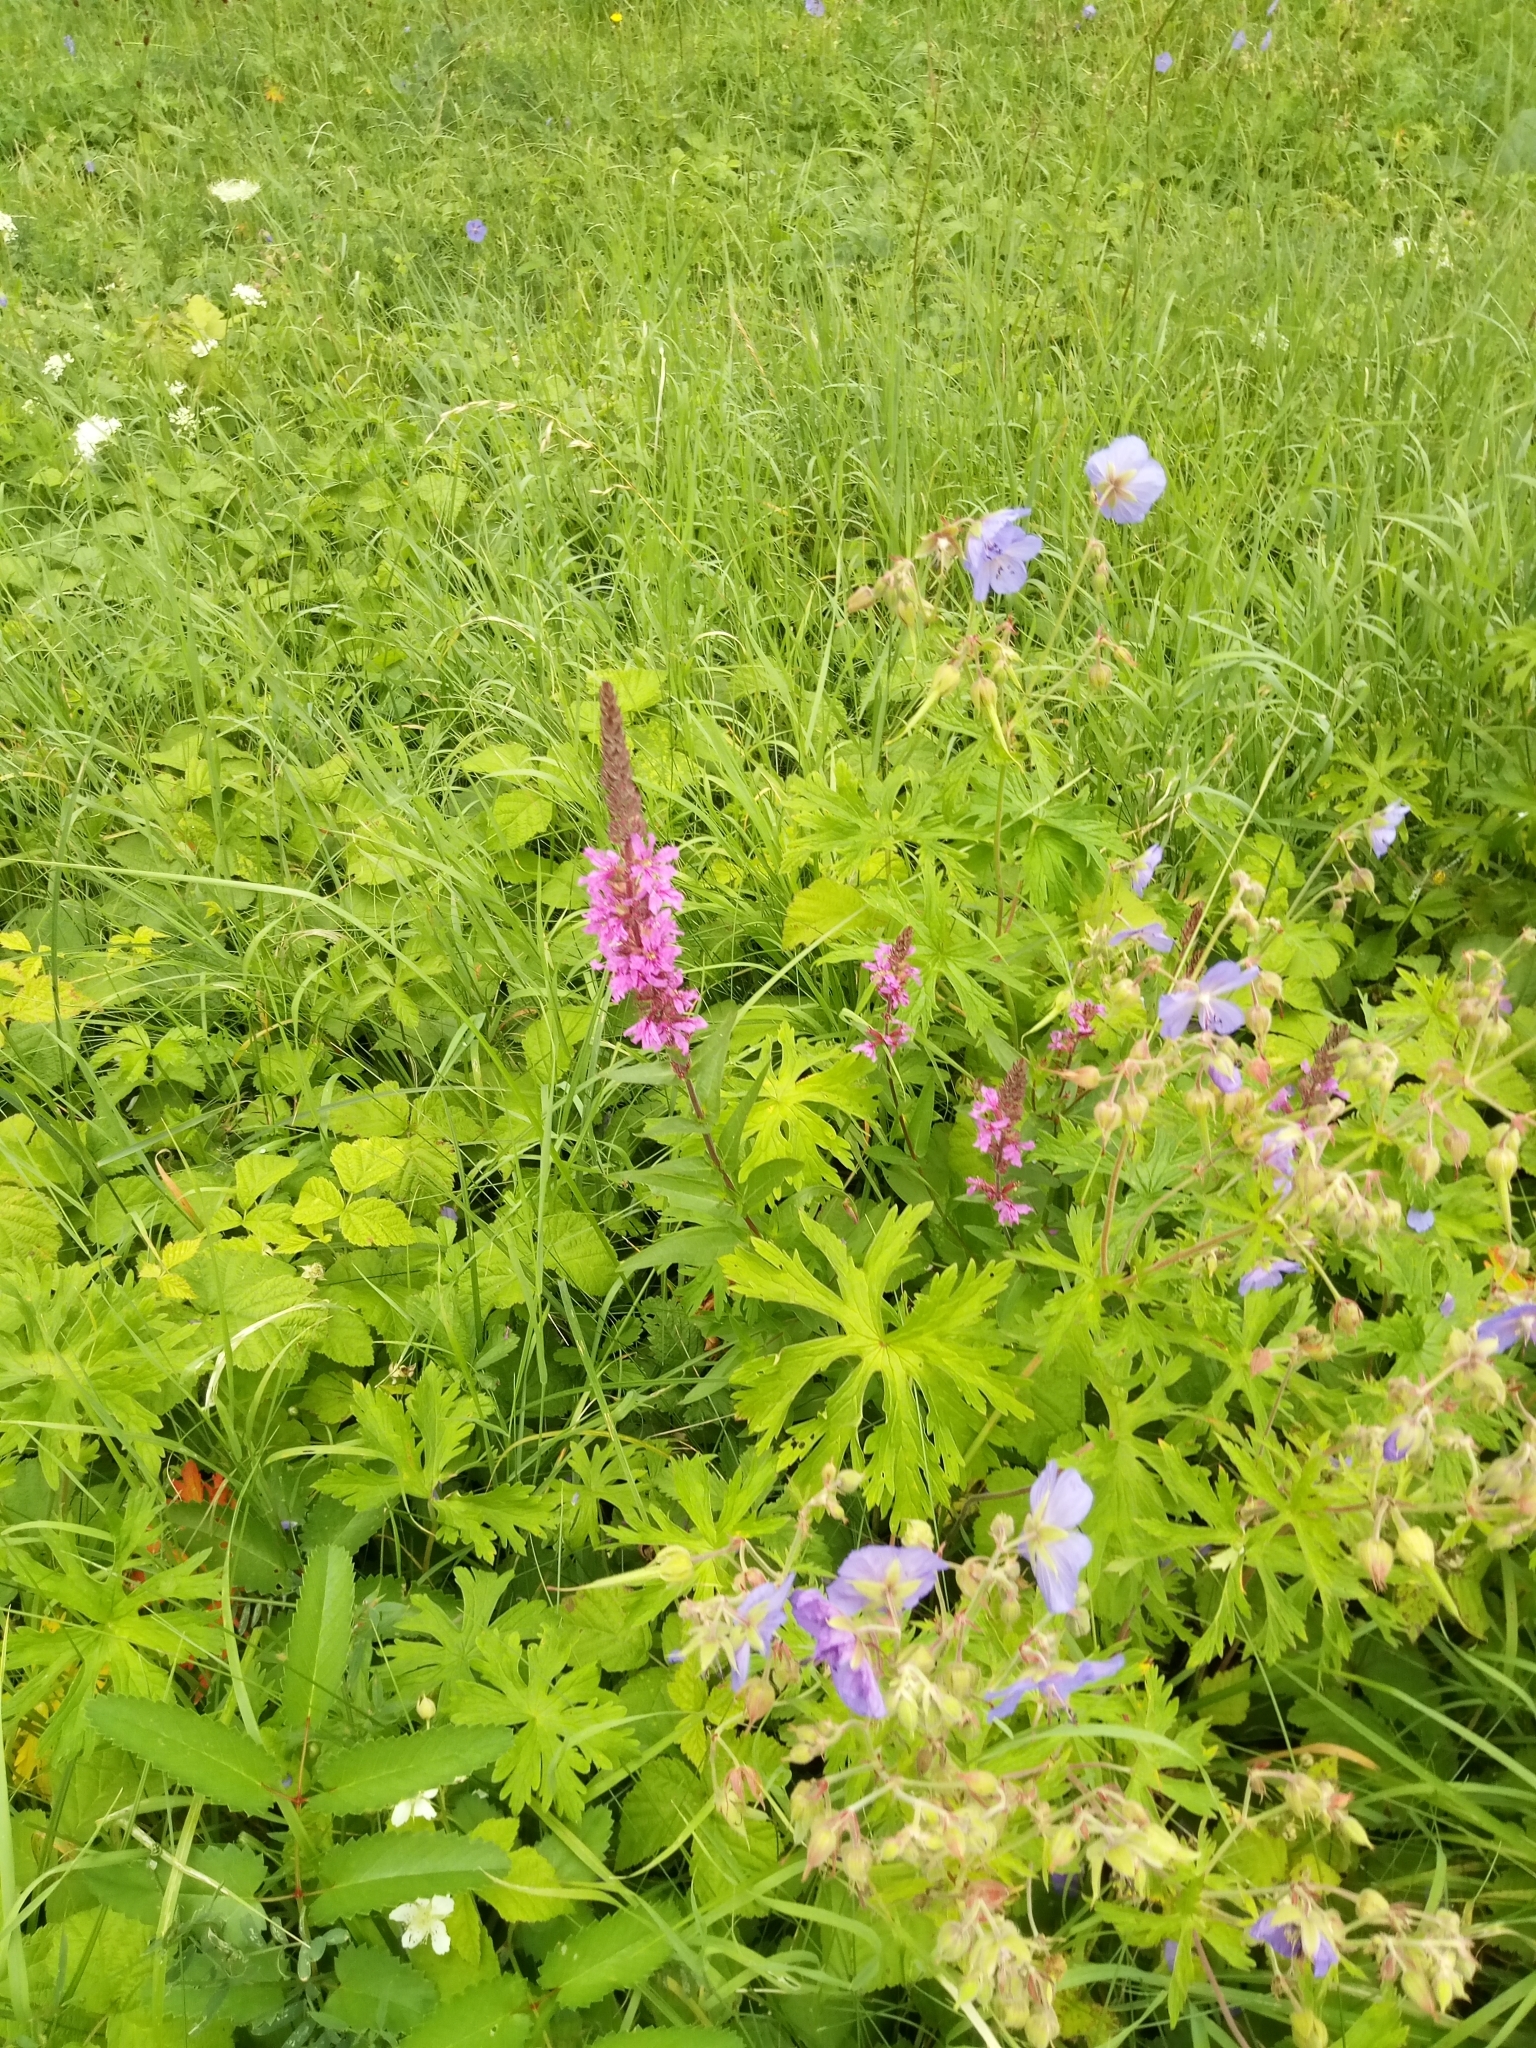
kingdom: Plantae
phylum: Tracheophyta
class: Magnoliopsida
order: Geraniales
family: Geraniaceae
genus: Geranium
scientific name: Geranium pratense
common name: Meadow crane's-bill
